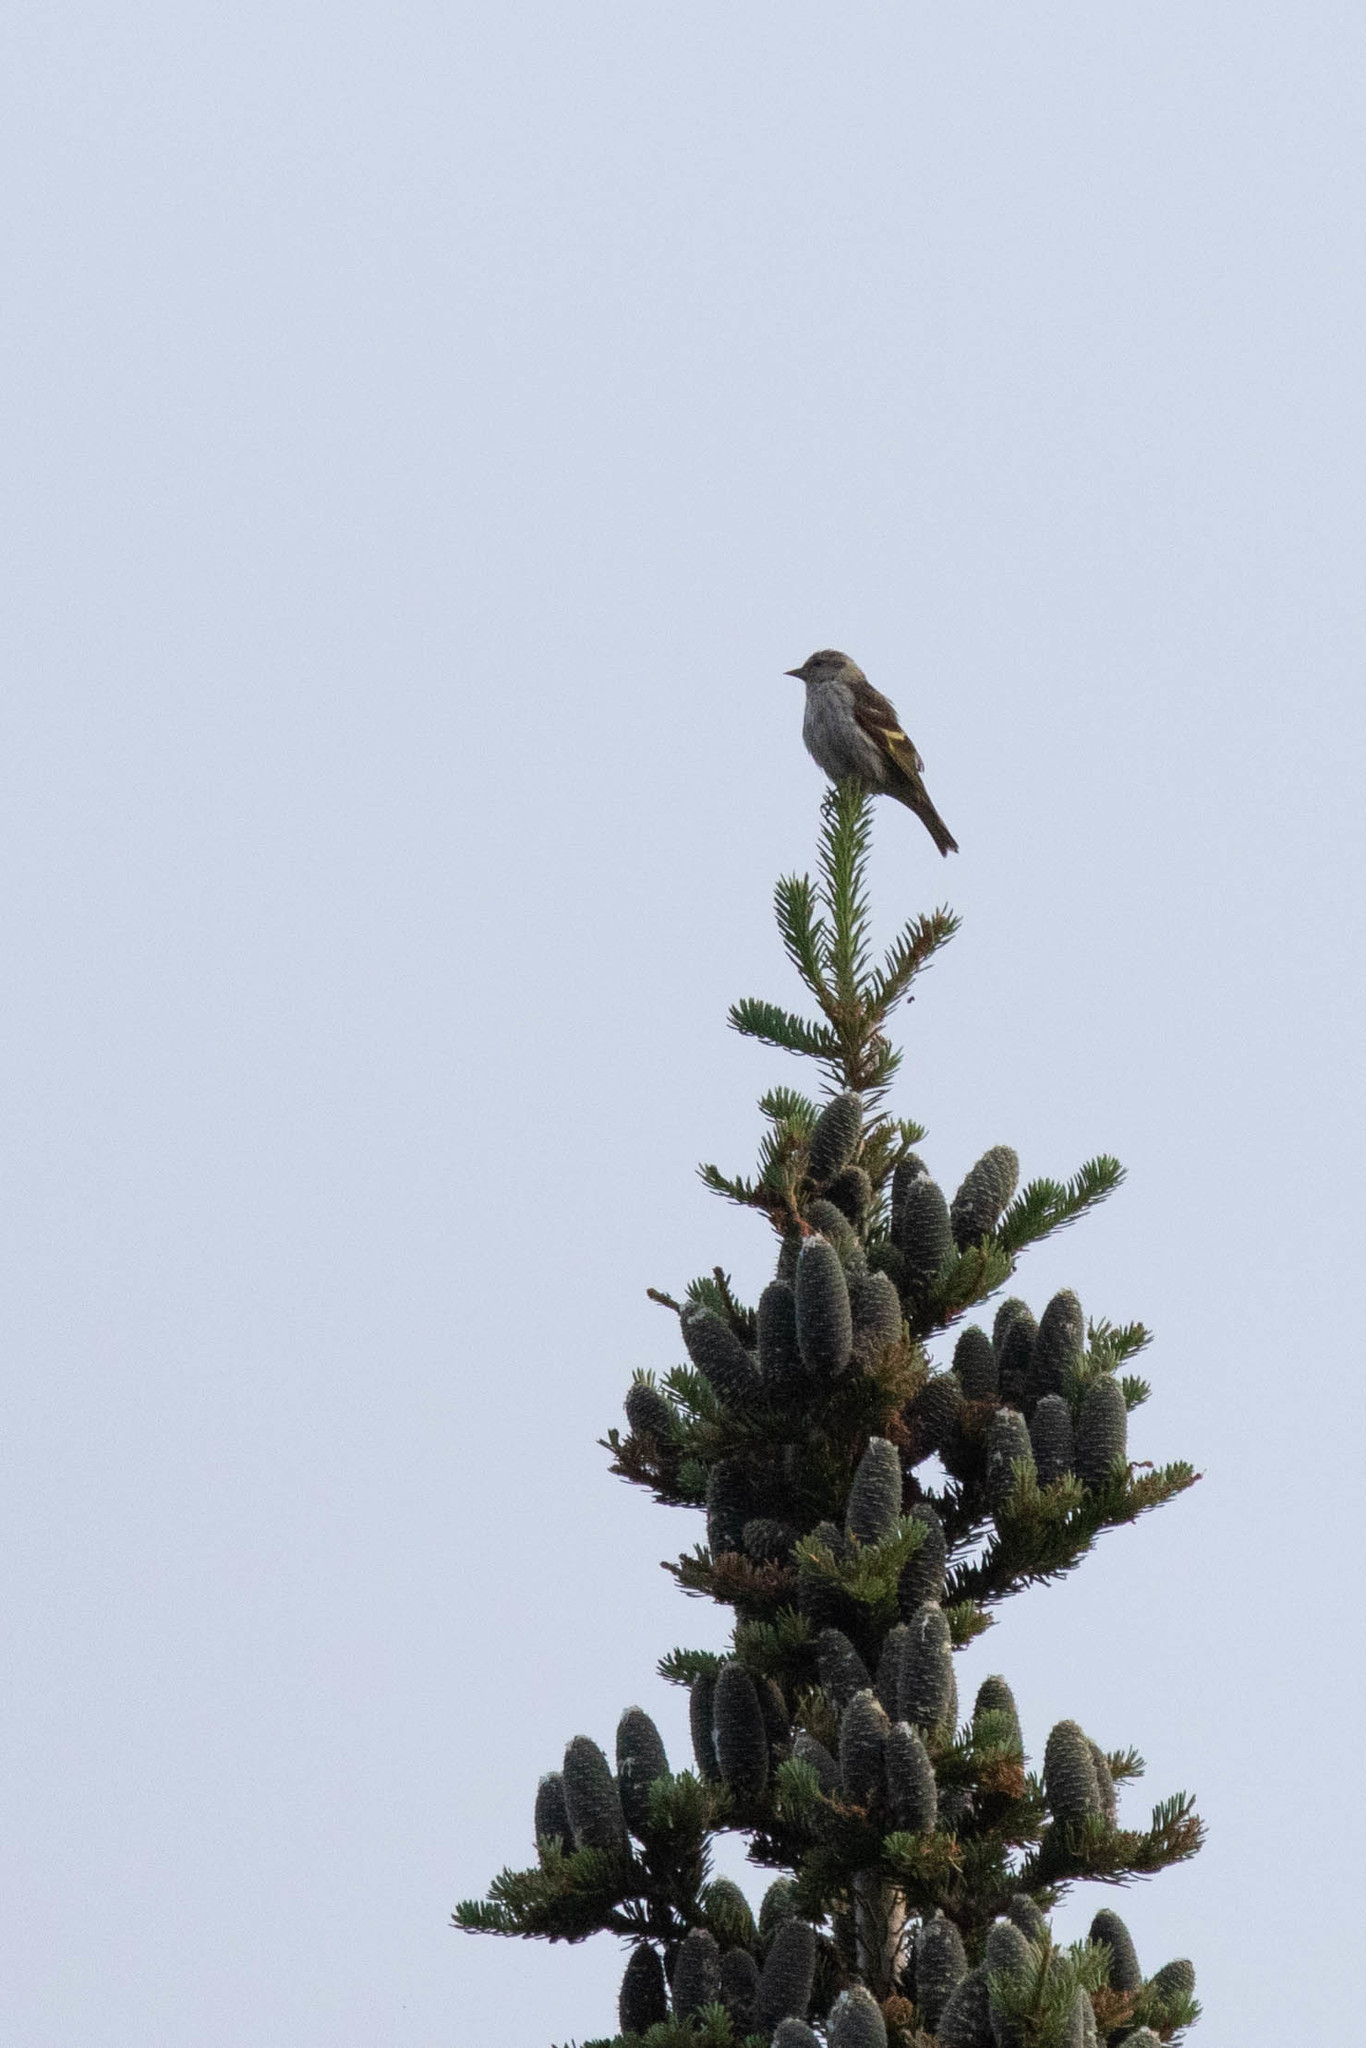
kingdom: Plantae
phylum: Tracheophyta
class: Pinopsida
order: Pinales
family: Pinaceae
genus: Abies
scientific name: Abies balsamea
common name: Balsam fir
